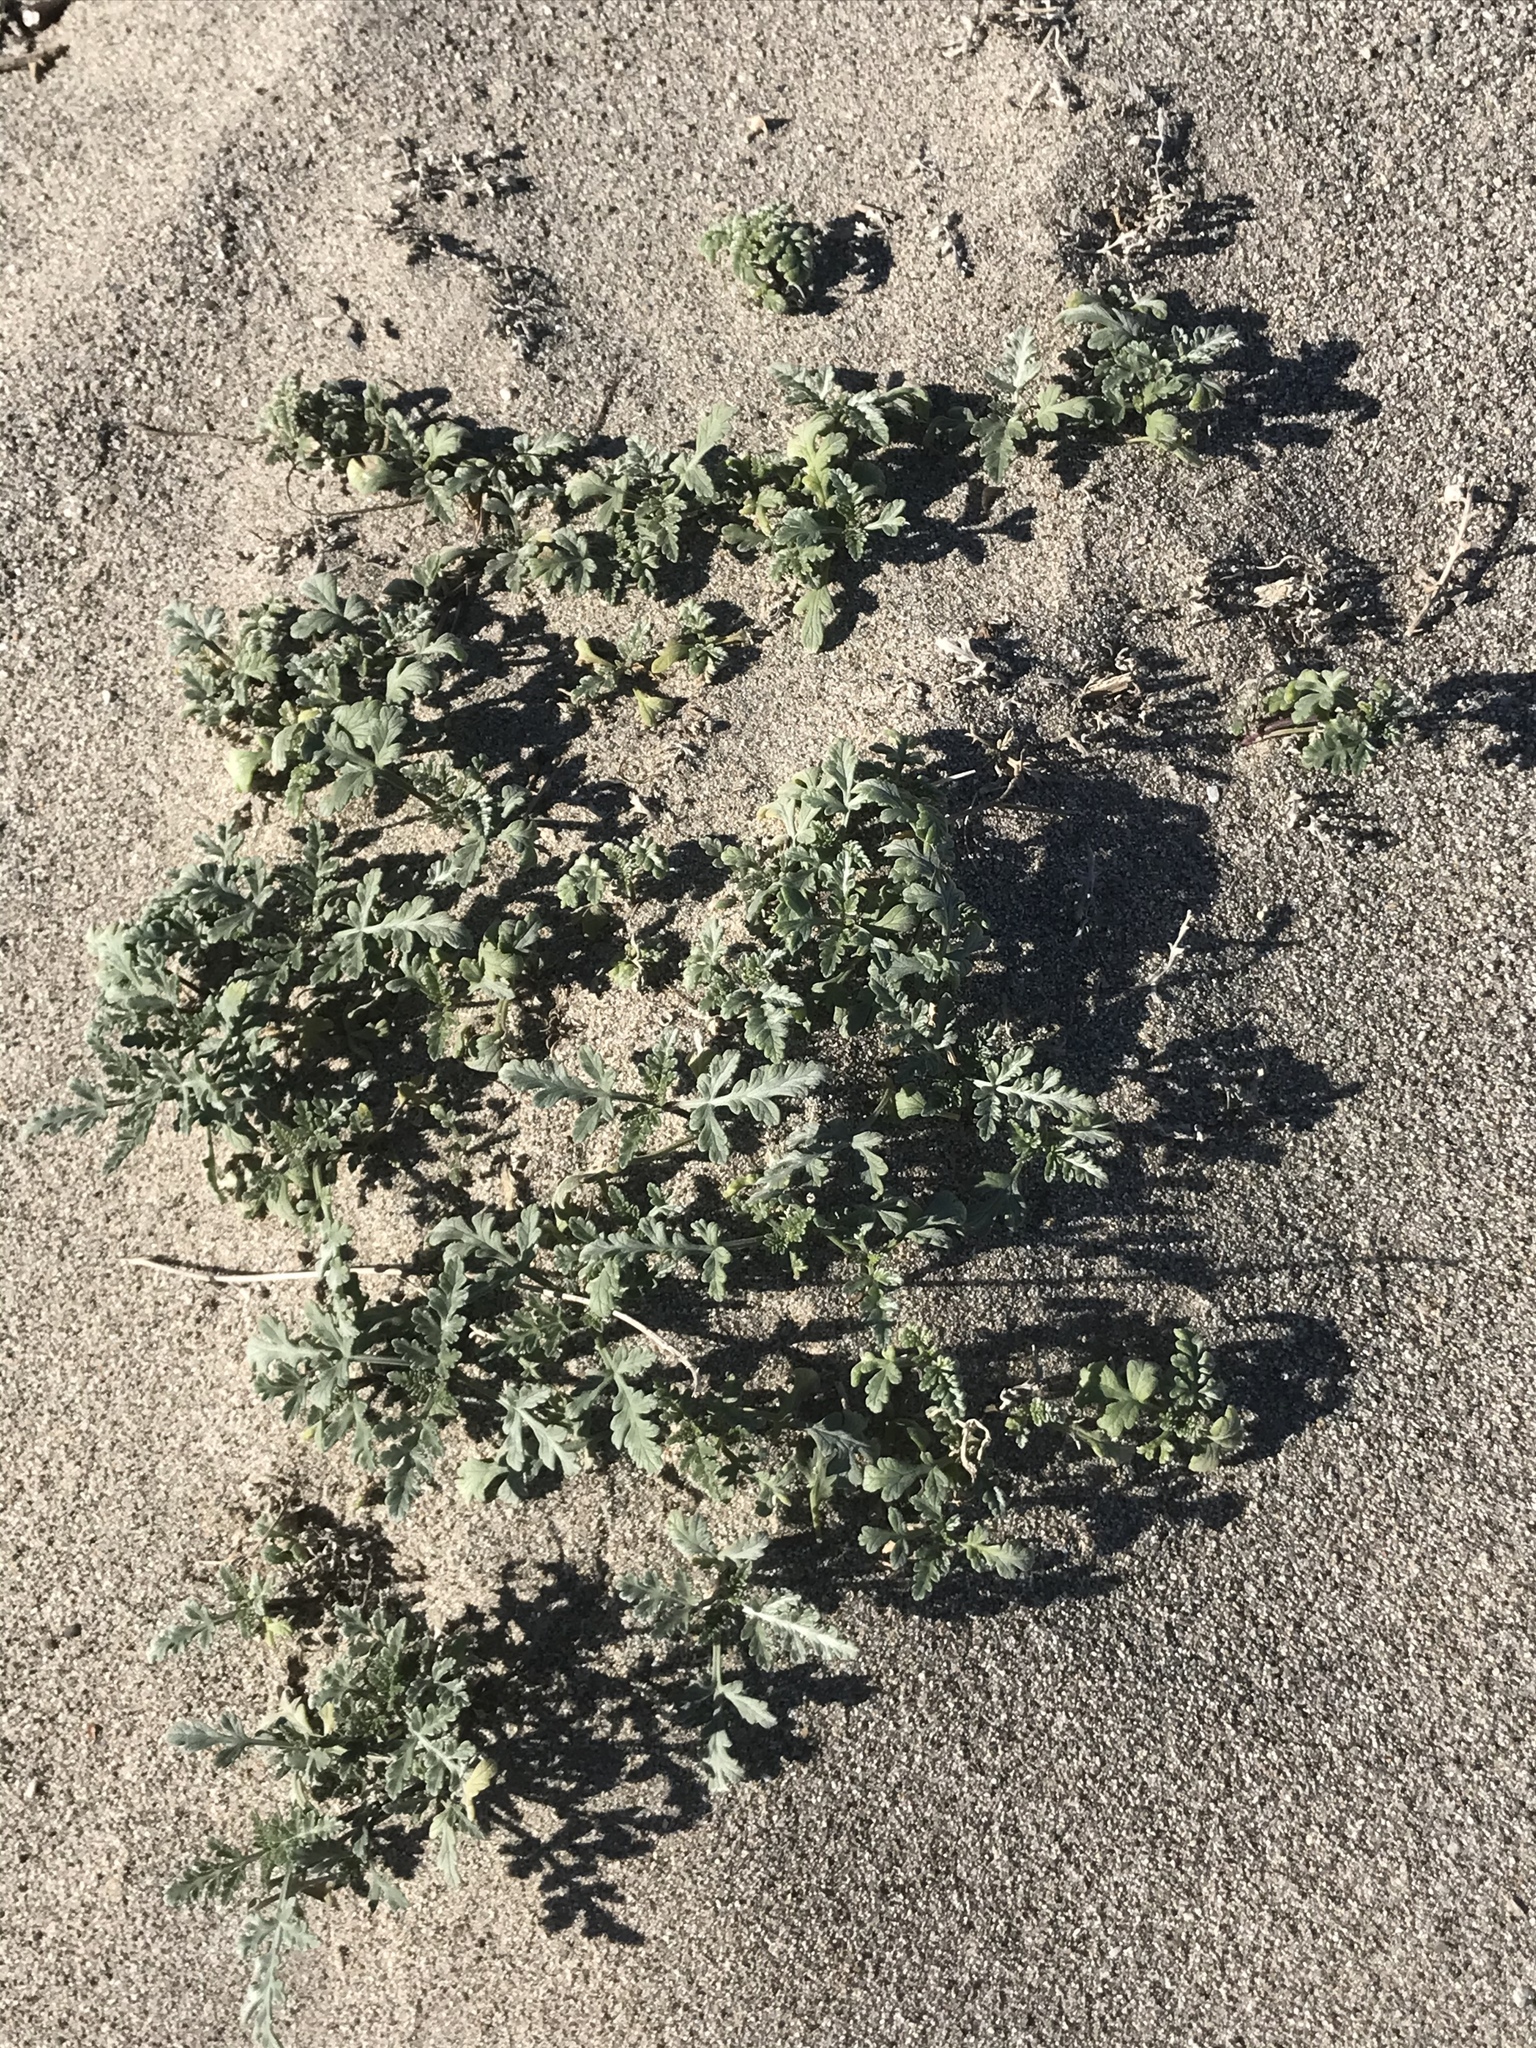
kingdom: Plantae
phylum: Tracheophyta
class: Magnoliopsida
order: Asterales
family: Asteraceae
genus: Ambrosia
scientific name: Ambrosia chamissonis
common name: Beachbur
